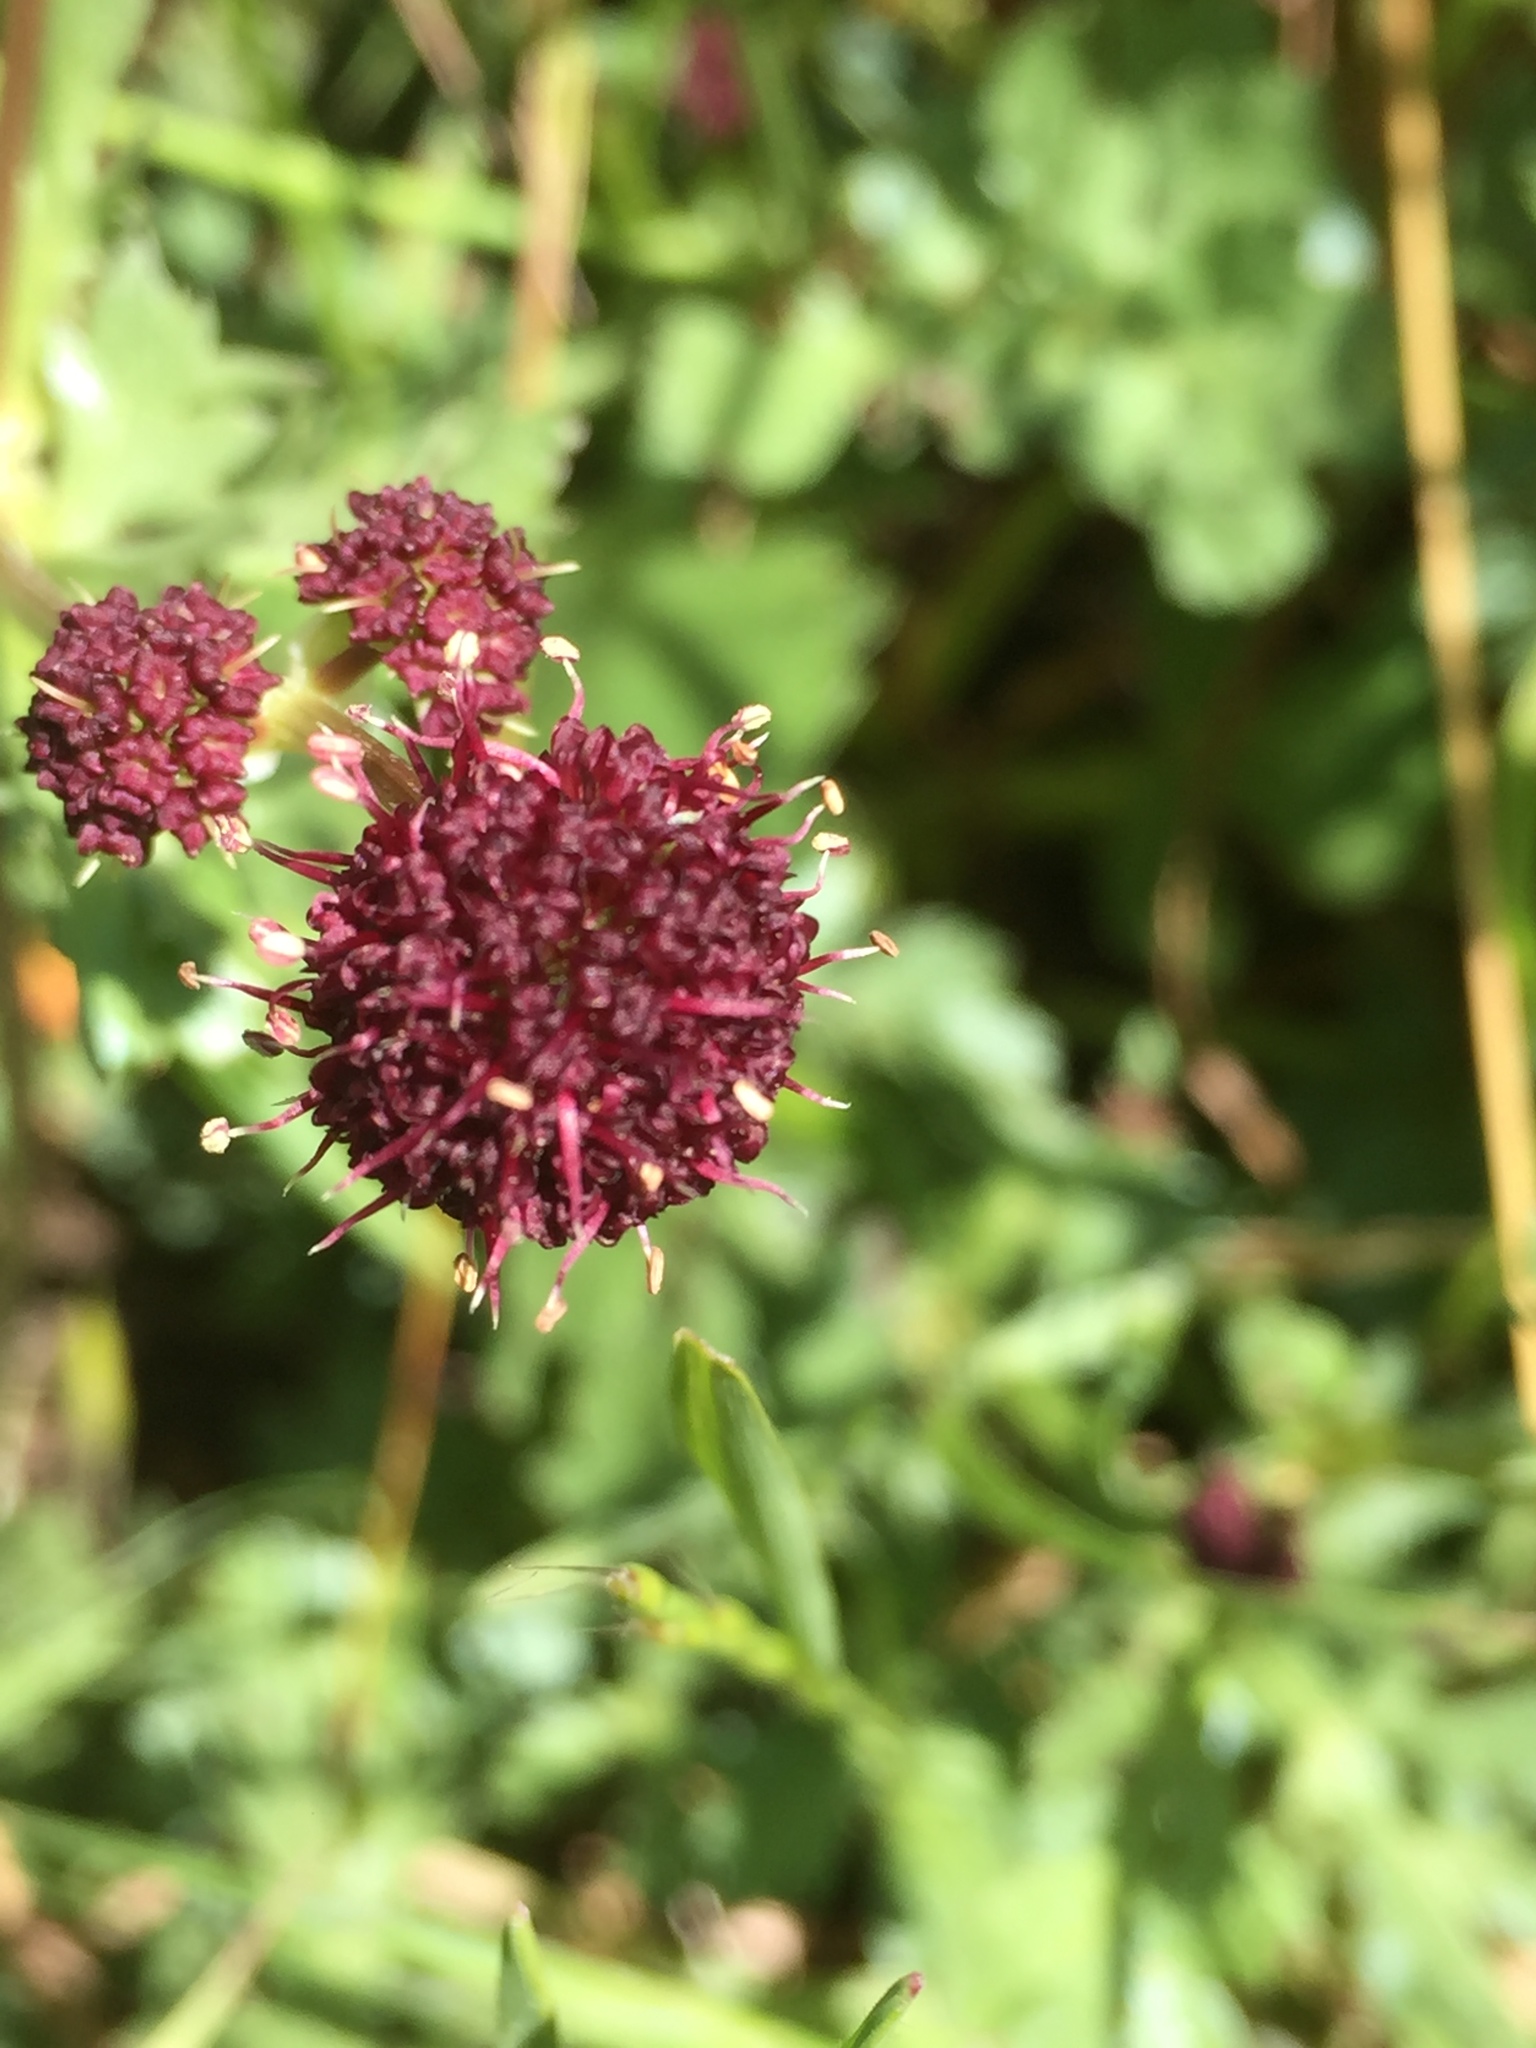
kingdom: Plantae
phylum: Tracheophyta
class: Magnoliopsida
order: Apiales
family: Apiaceae
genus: Sanicula
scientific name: Sanicula bipinnatifida
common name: Shoe-buttons
